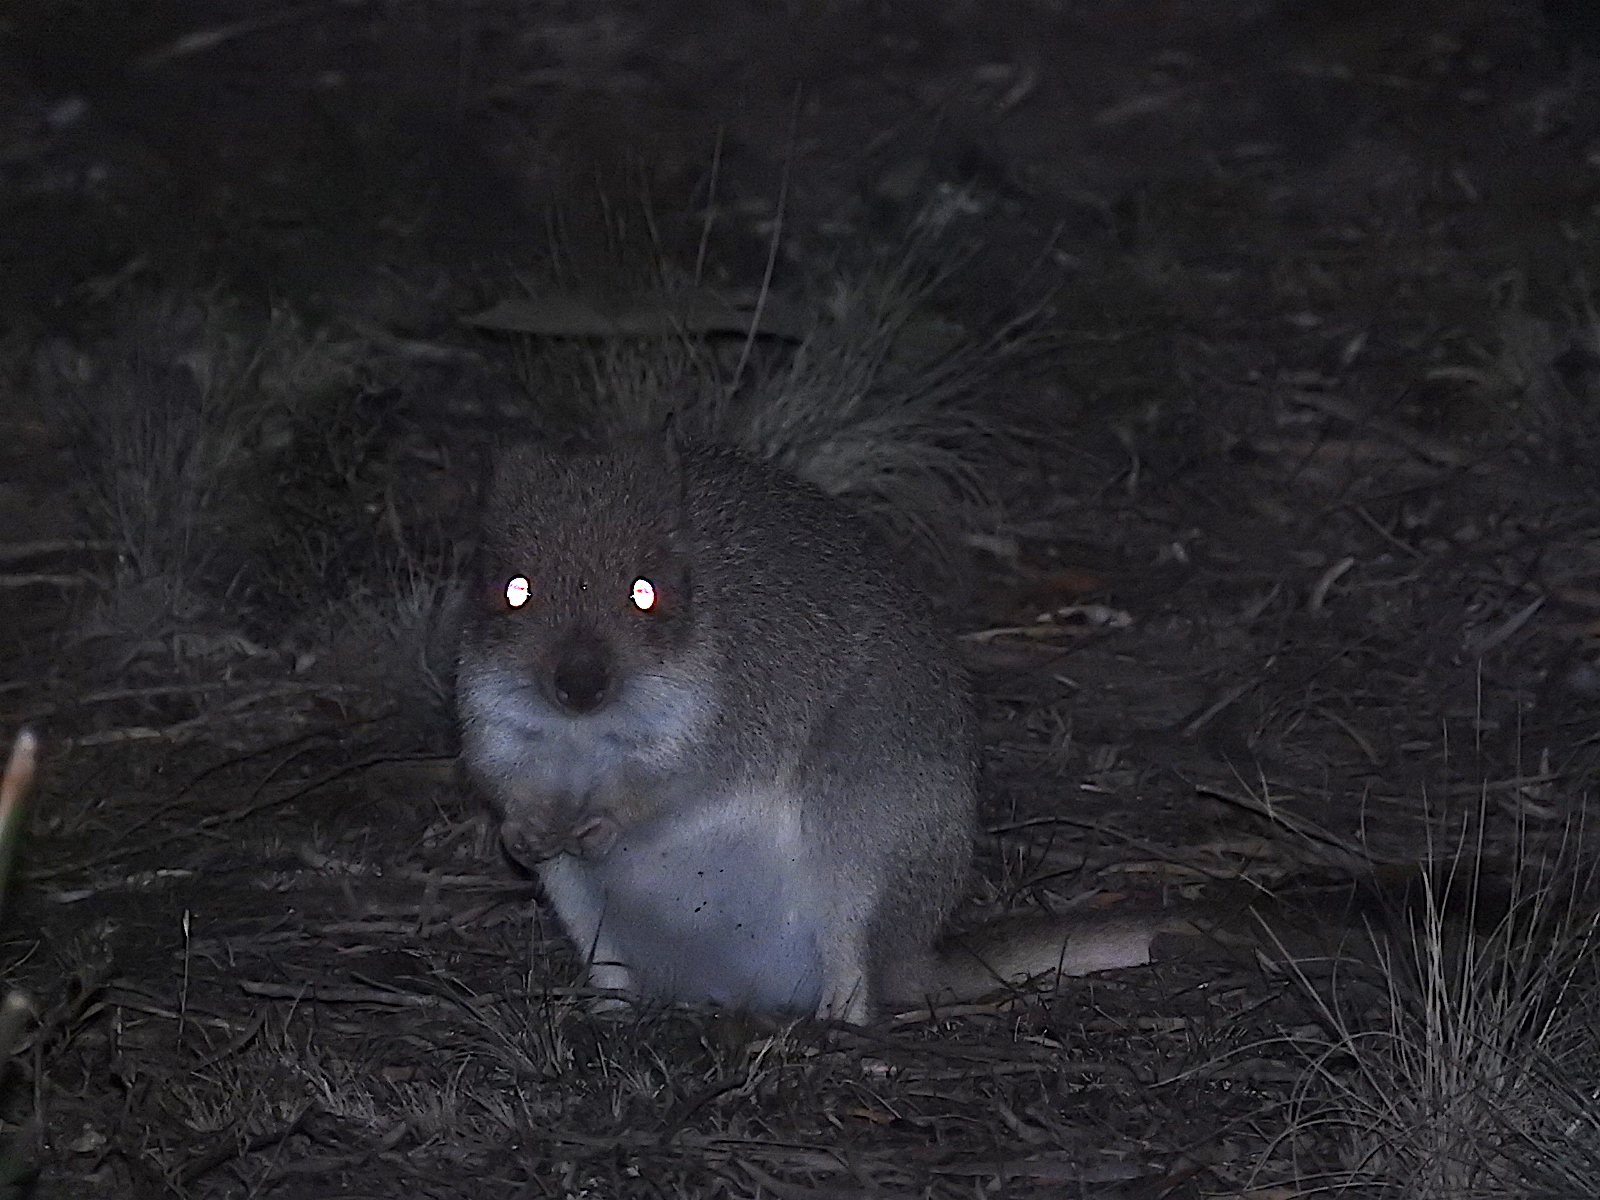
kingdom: Animalia
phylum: Chordata
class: Mammalia
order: Diprotodontia
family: Potoroidae
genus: Bettongia
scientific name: Bettongia gaimardi
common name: Eastern bettong
